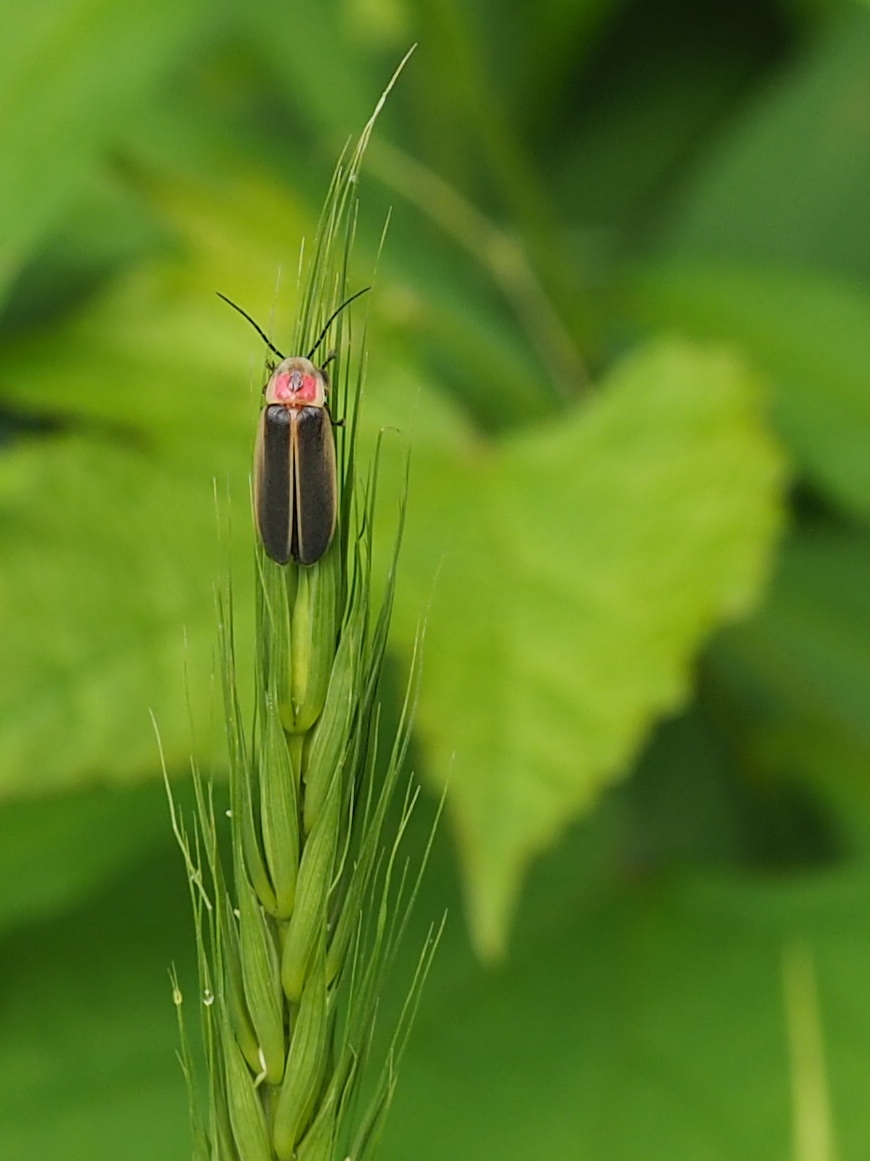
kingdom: Animalia
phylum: Arthropoda
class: Insecta
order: Coleoptera
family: Lampyridae
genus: Photinus
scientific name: Photinus pyralis
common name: Big dipper firefly
